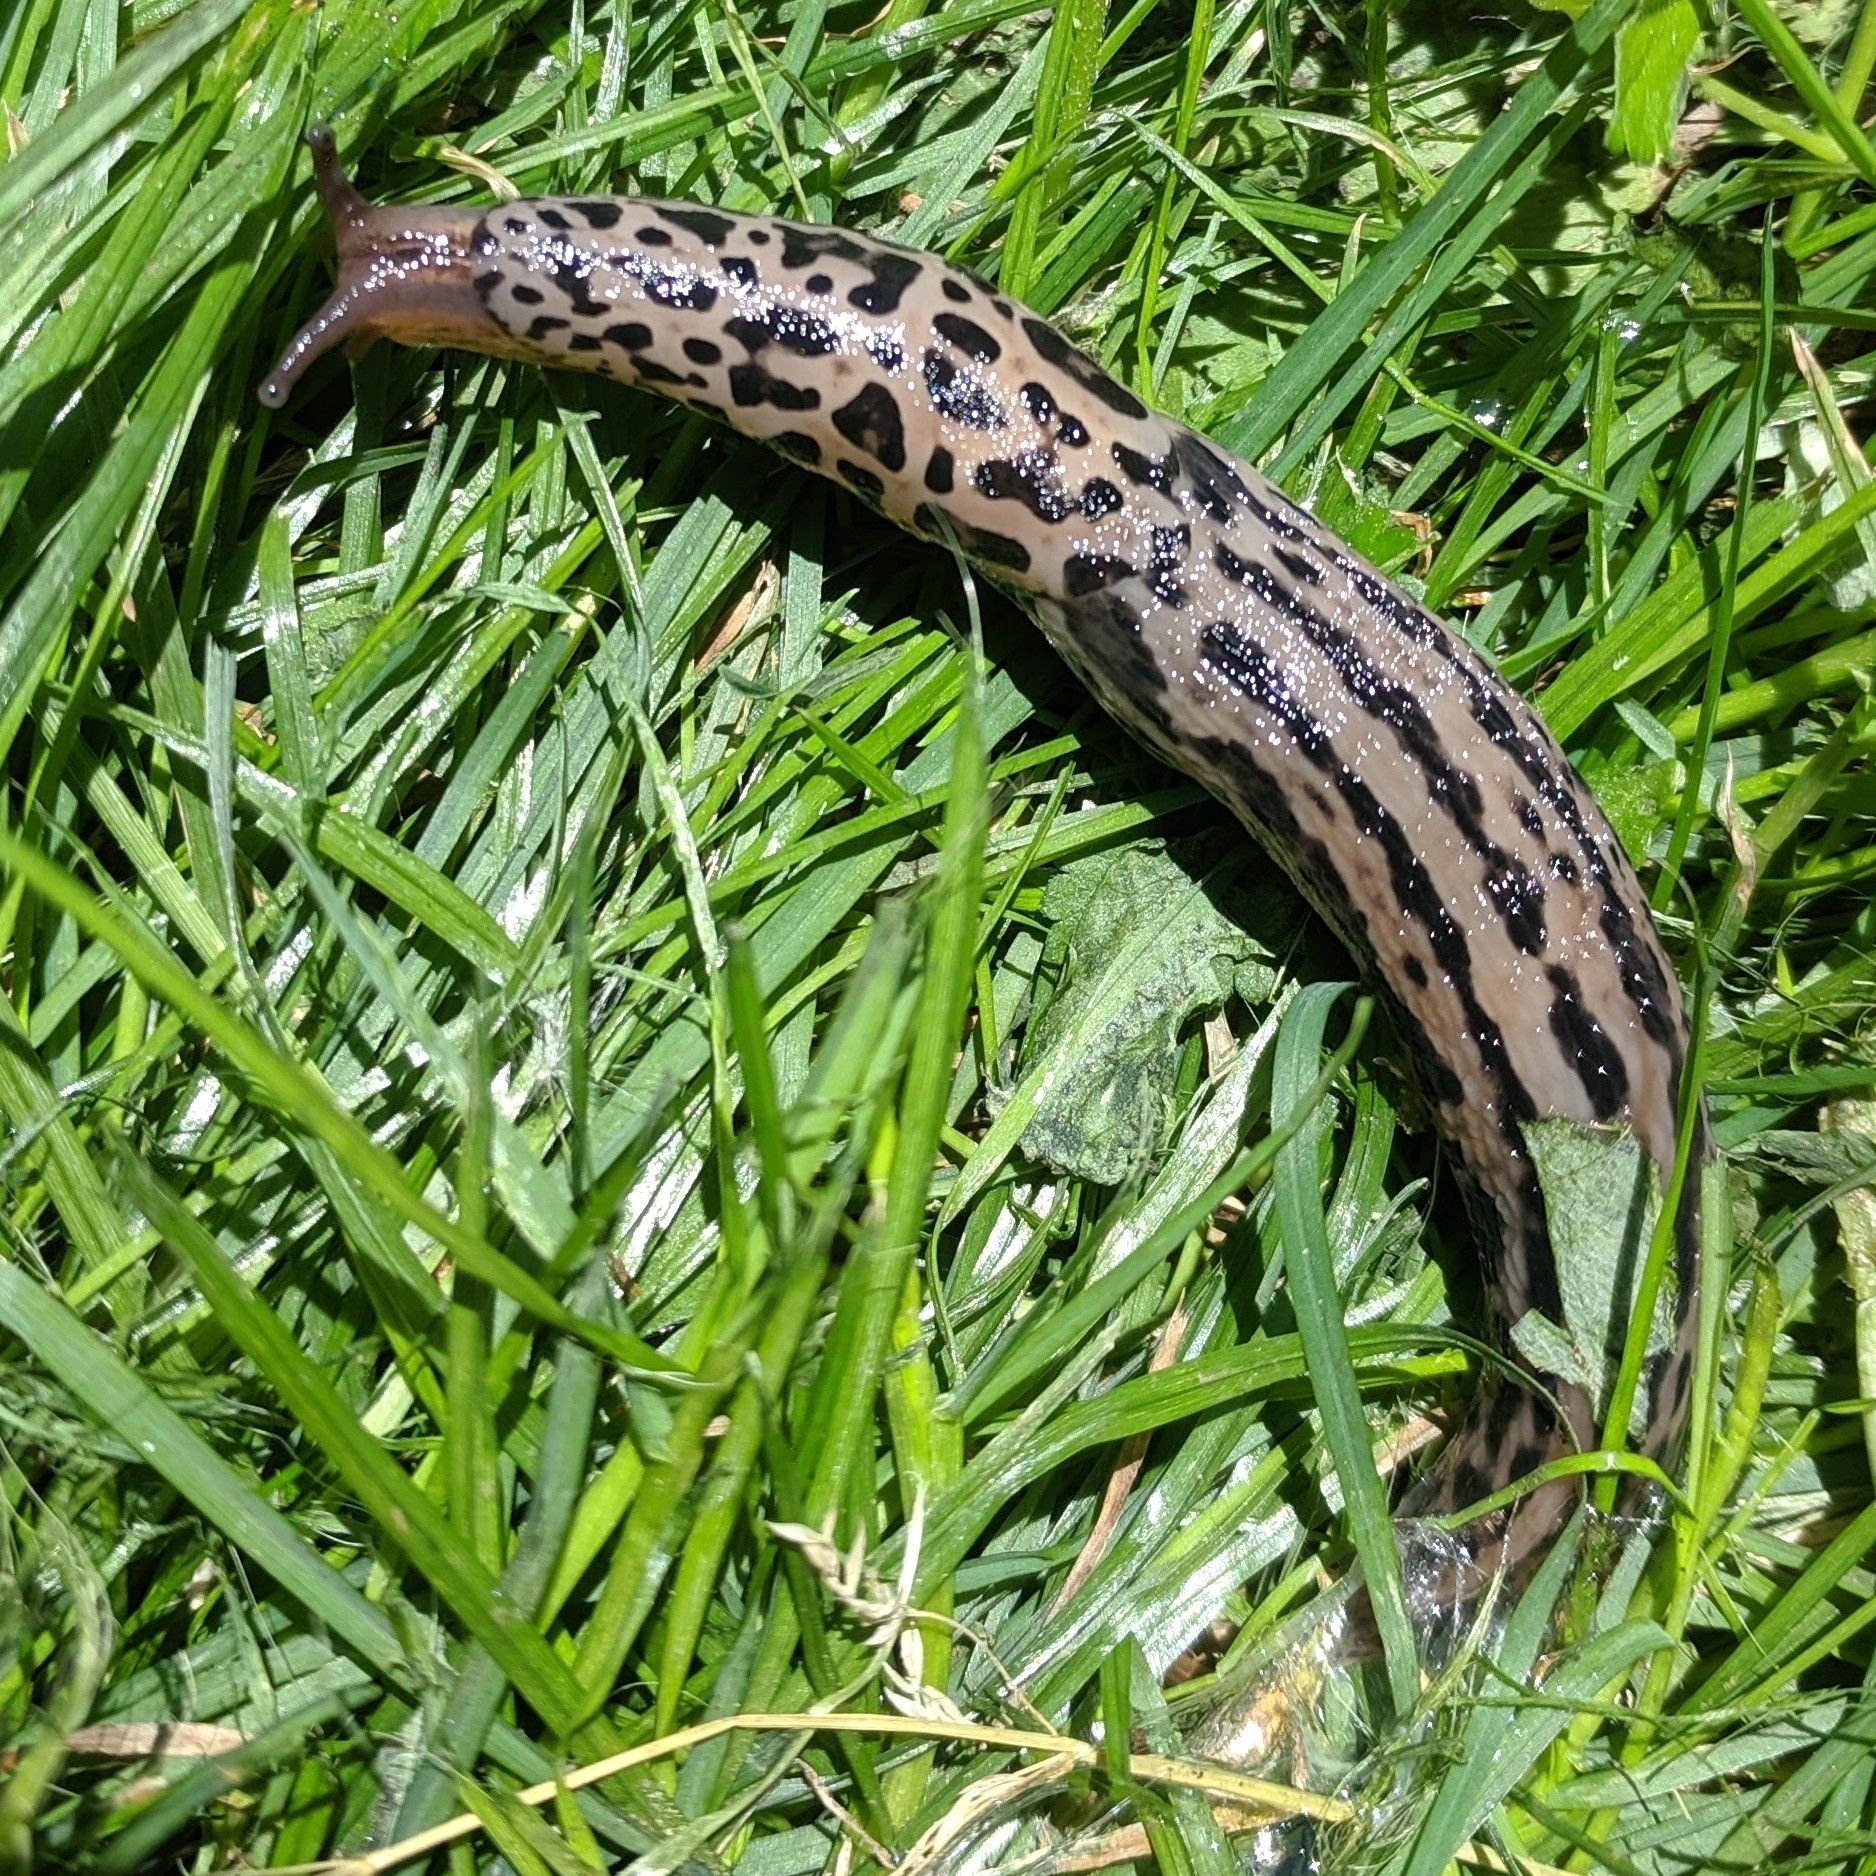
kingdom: Animalia
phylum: Mollusca
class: Gastropoda
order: Stylommatophora
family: Limacidae
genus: Limax
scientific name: Limax maximus
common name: Great grey slug
